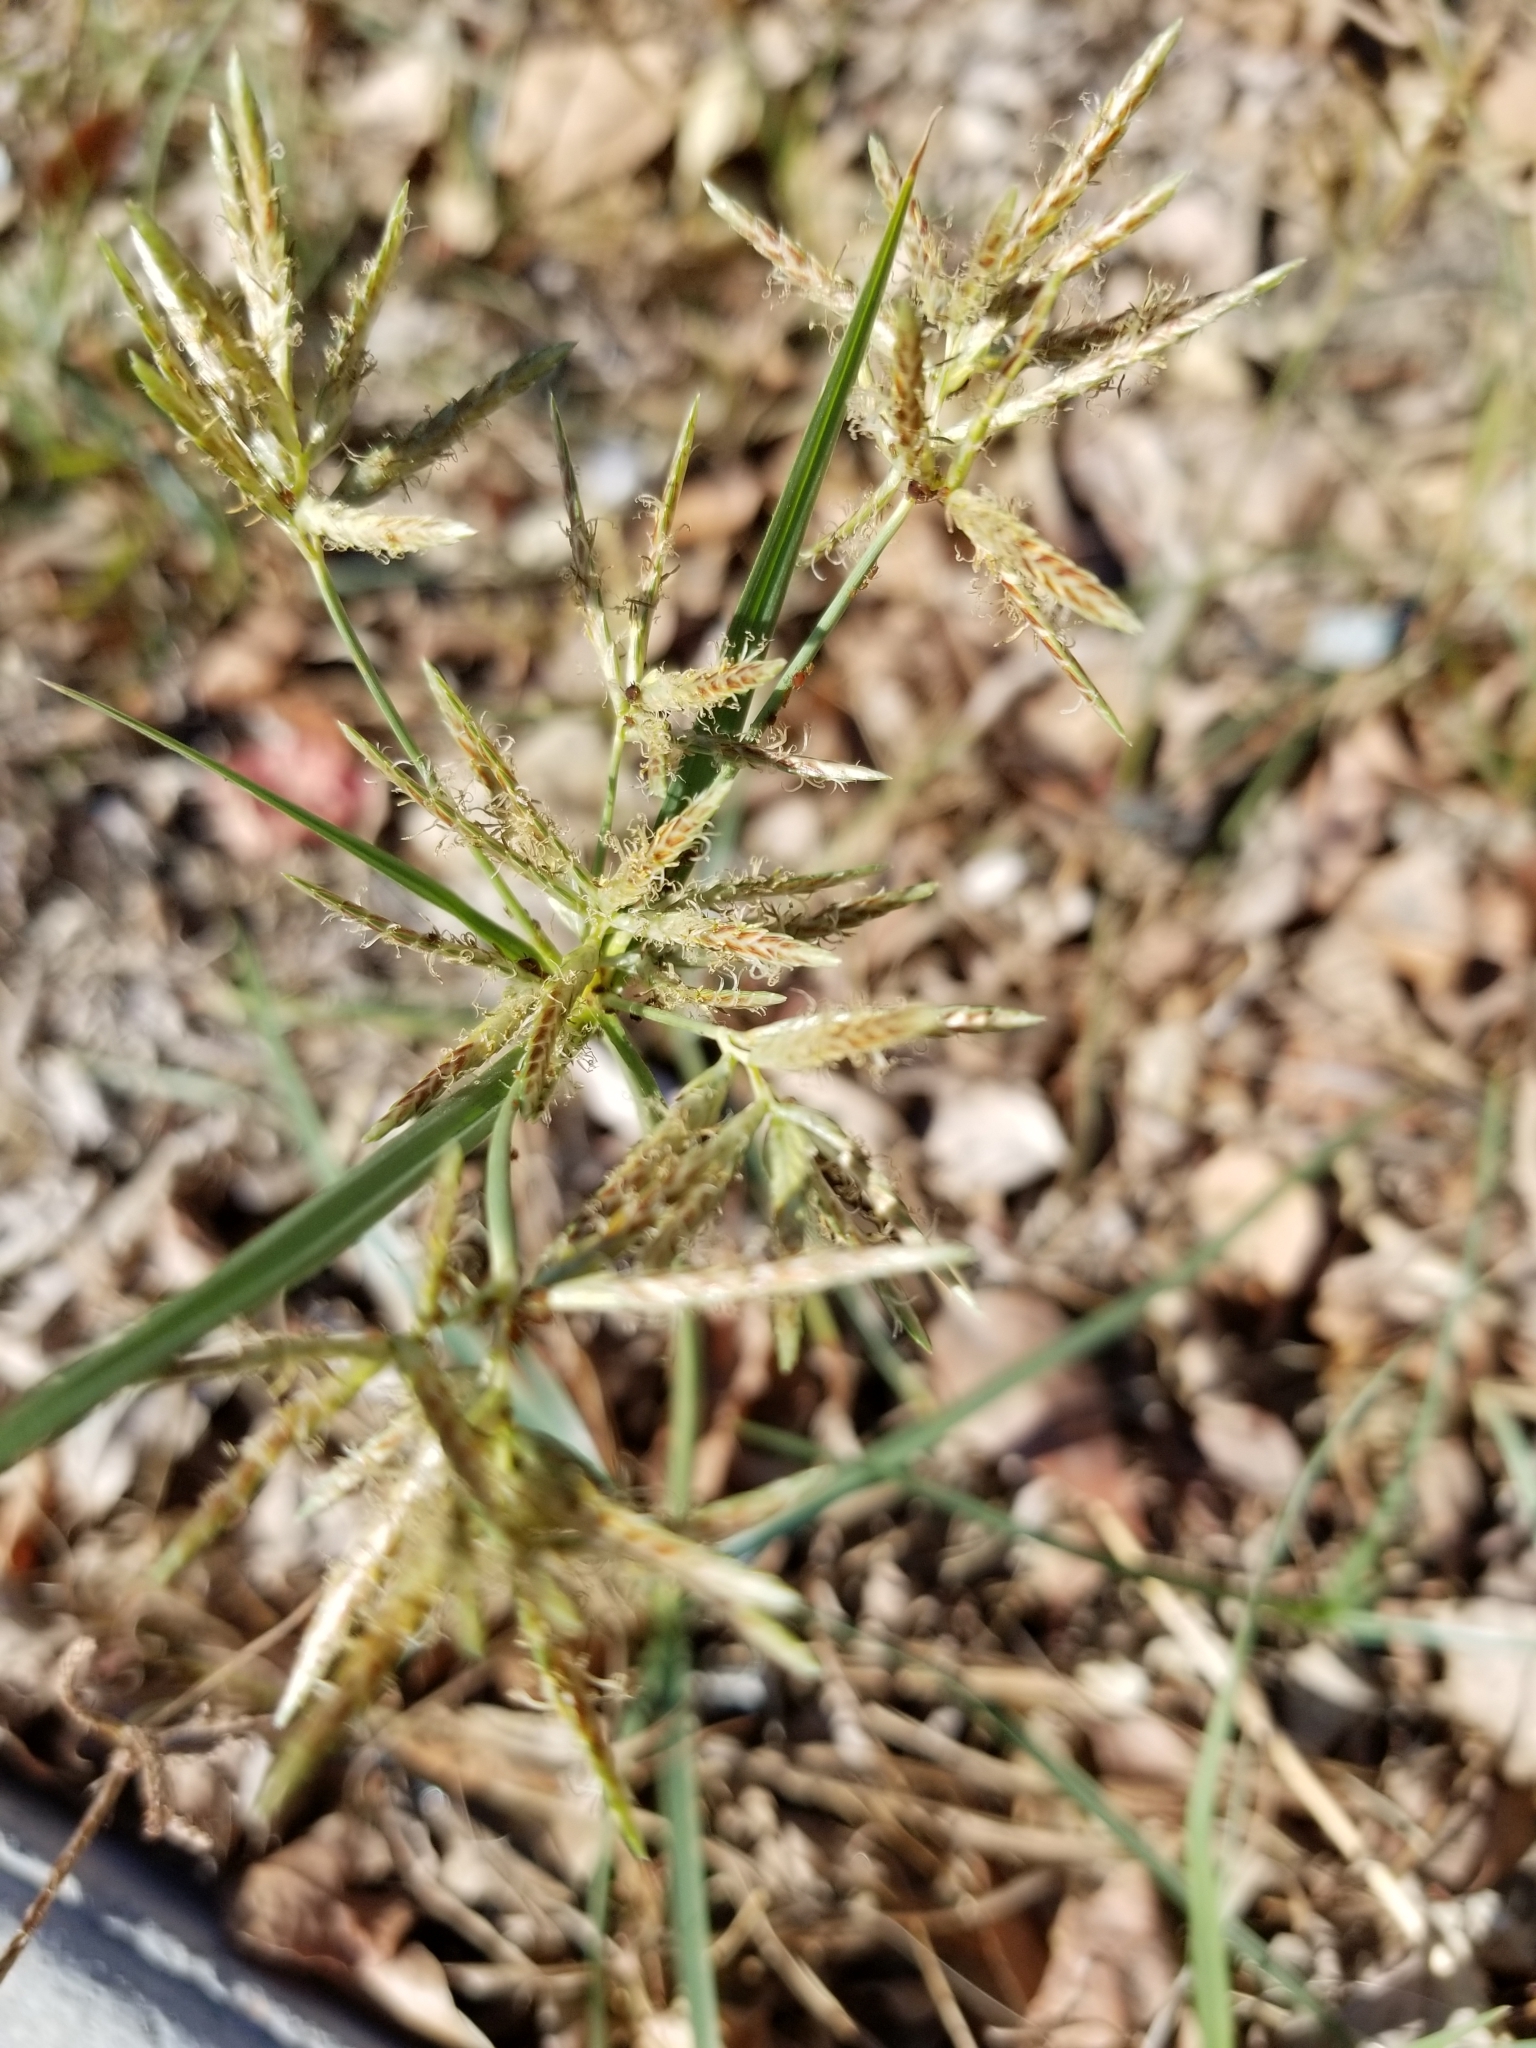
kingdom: Plantae
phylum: Tracheophyta
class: Liliopsida
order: Poales
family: Cyperaceae
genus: Cyperus
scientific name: Cyperus rotundus
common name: Nutgrass
